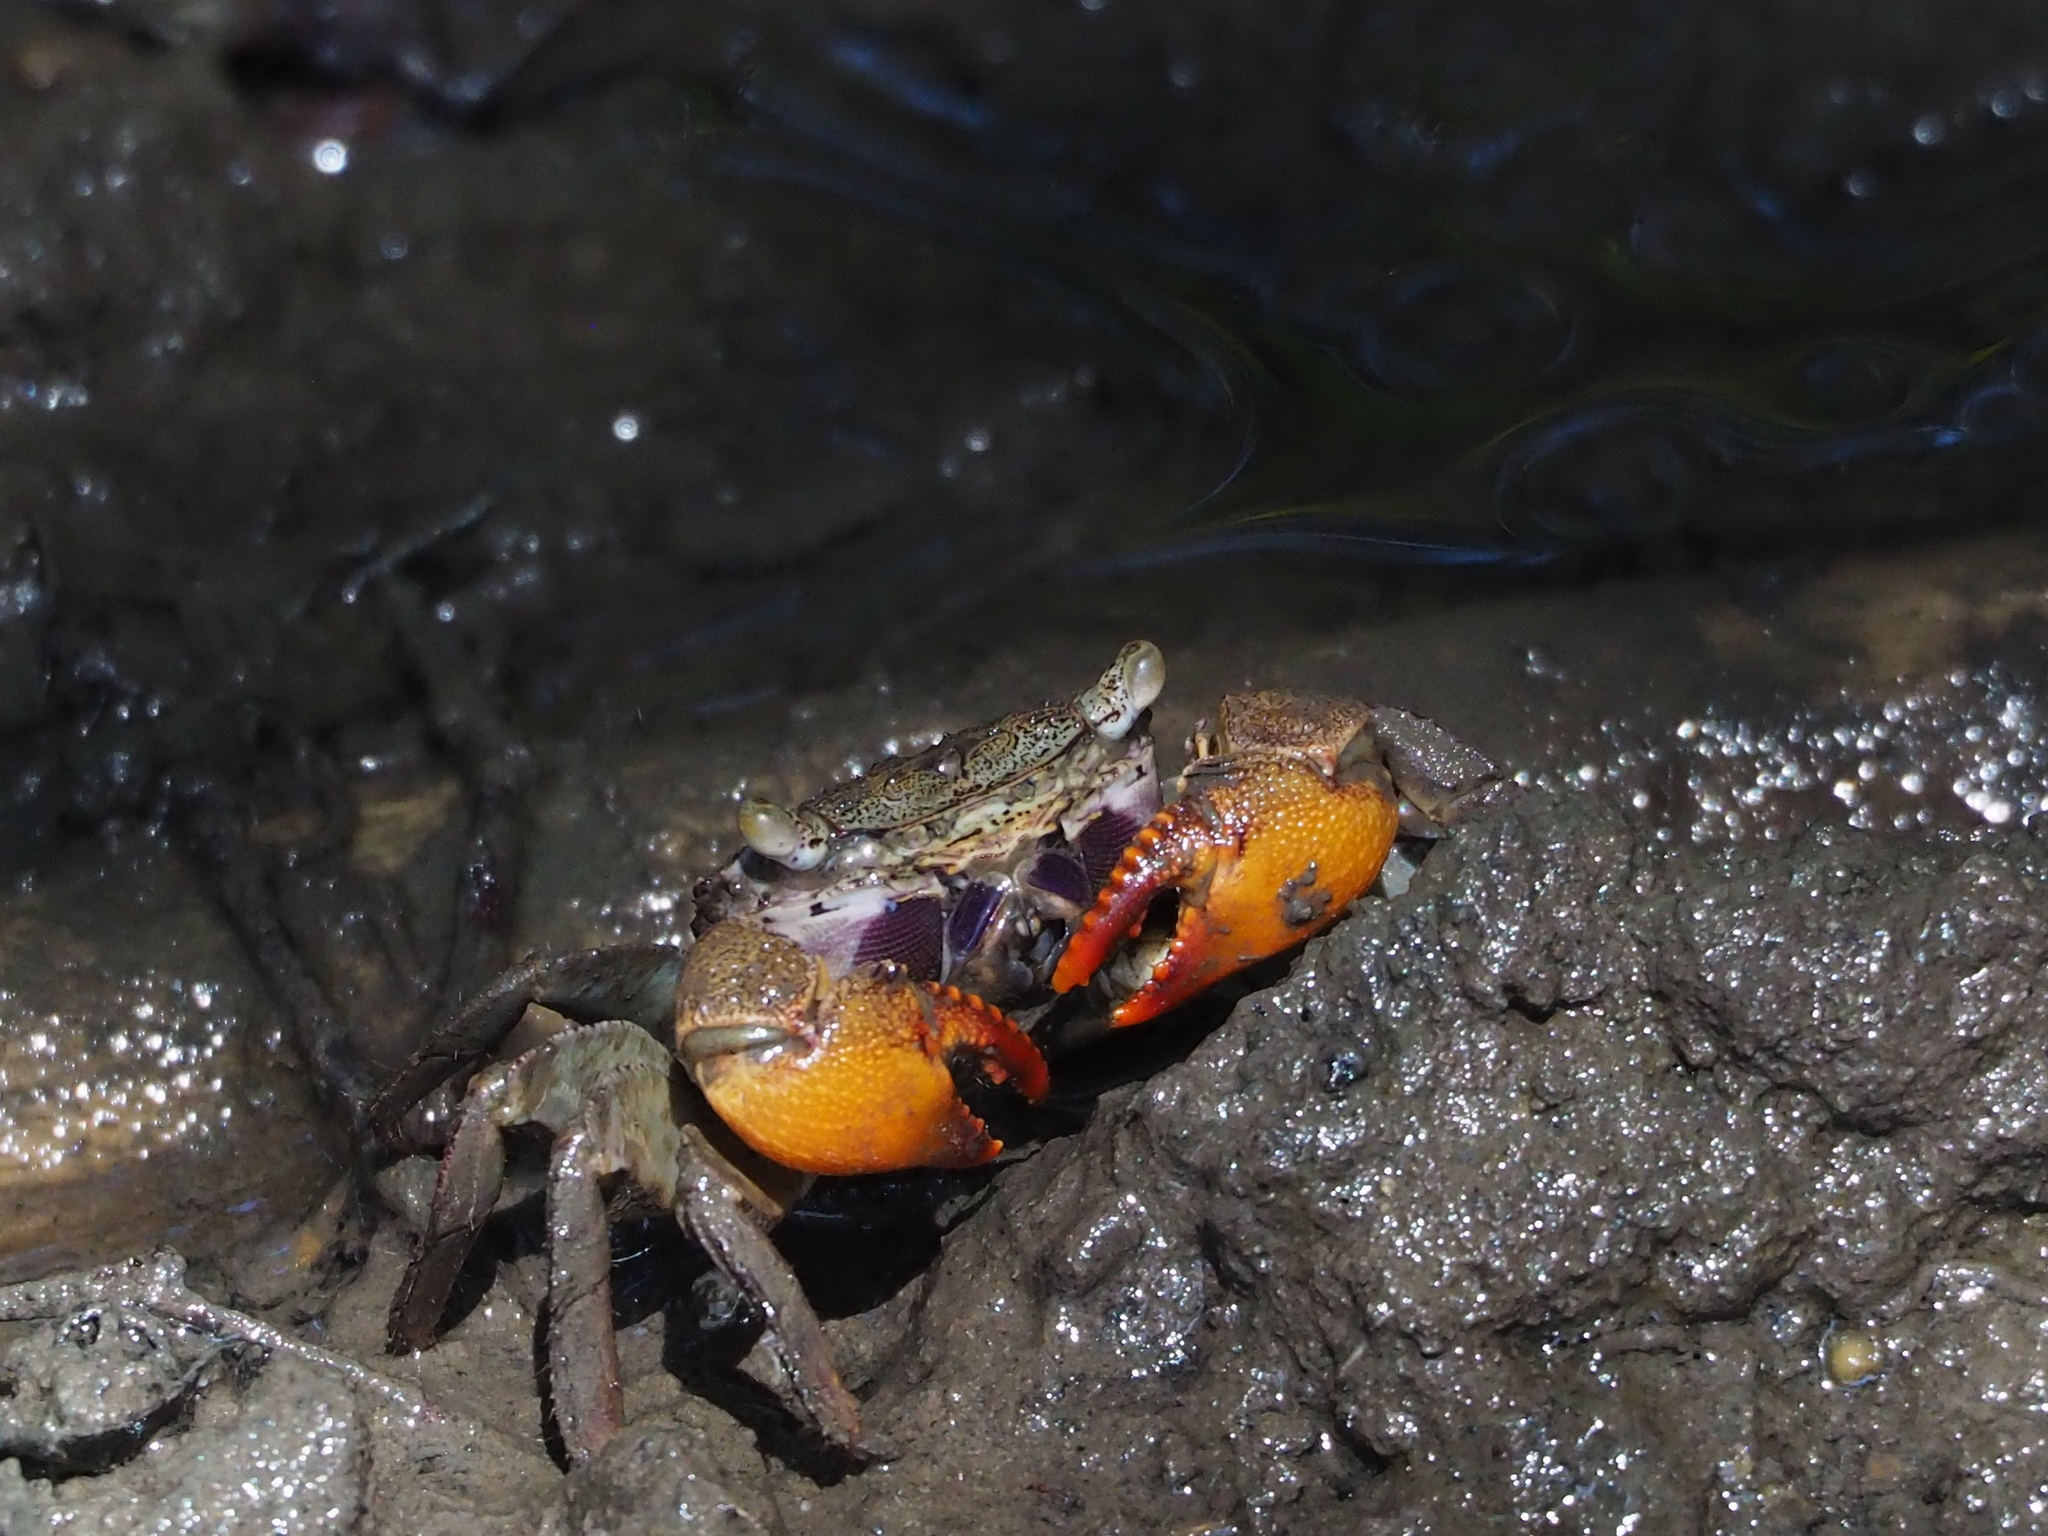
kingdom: Animalia
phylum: Arthropoda
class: Malacostraca
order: Decapoda
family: Sesarmidae
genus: Parasesarma
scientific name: Parasesarma bidens
